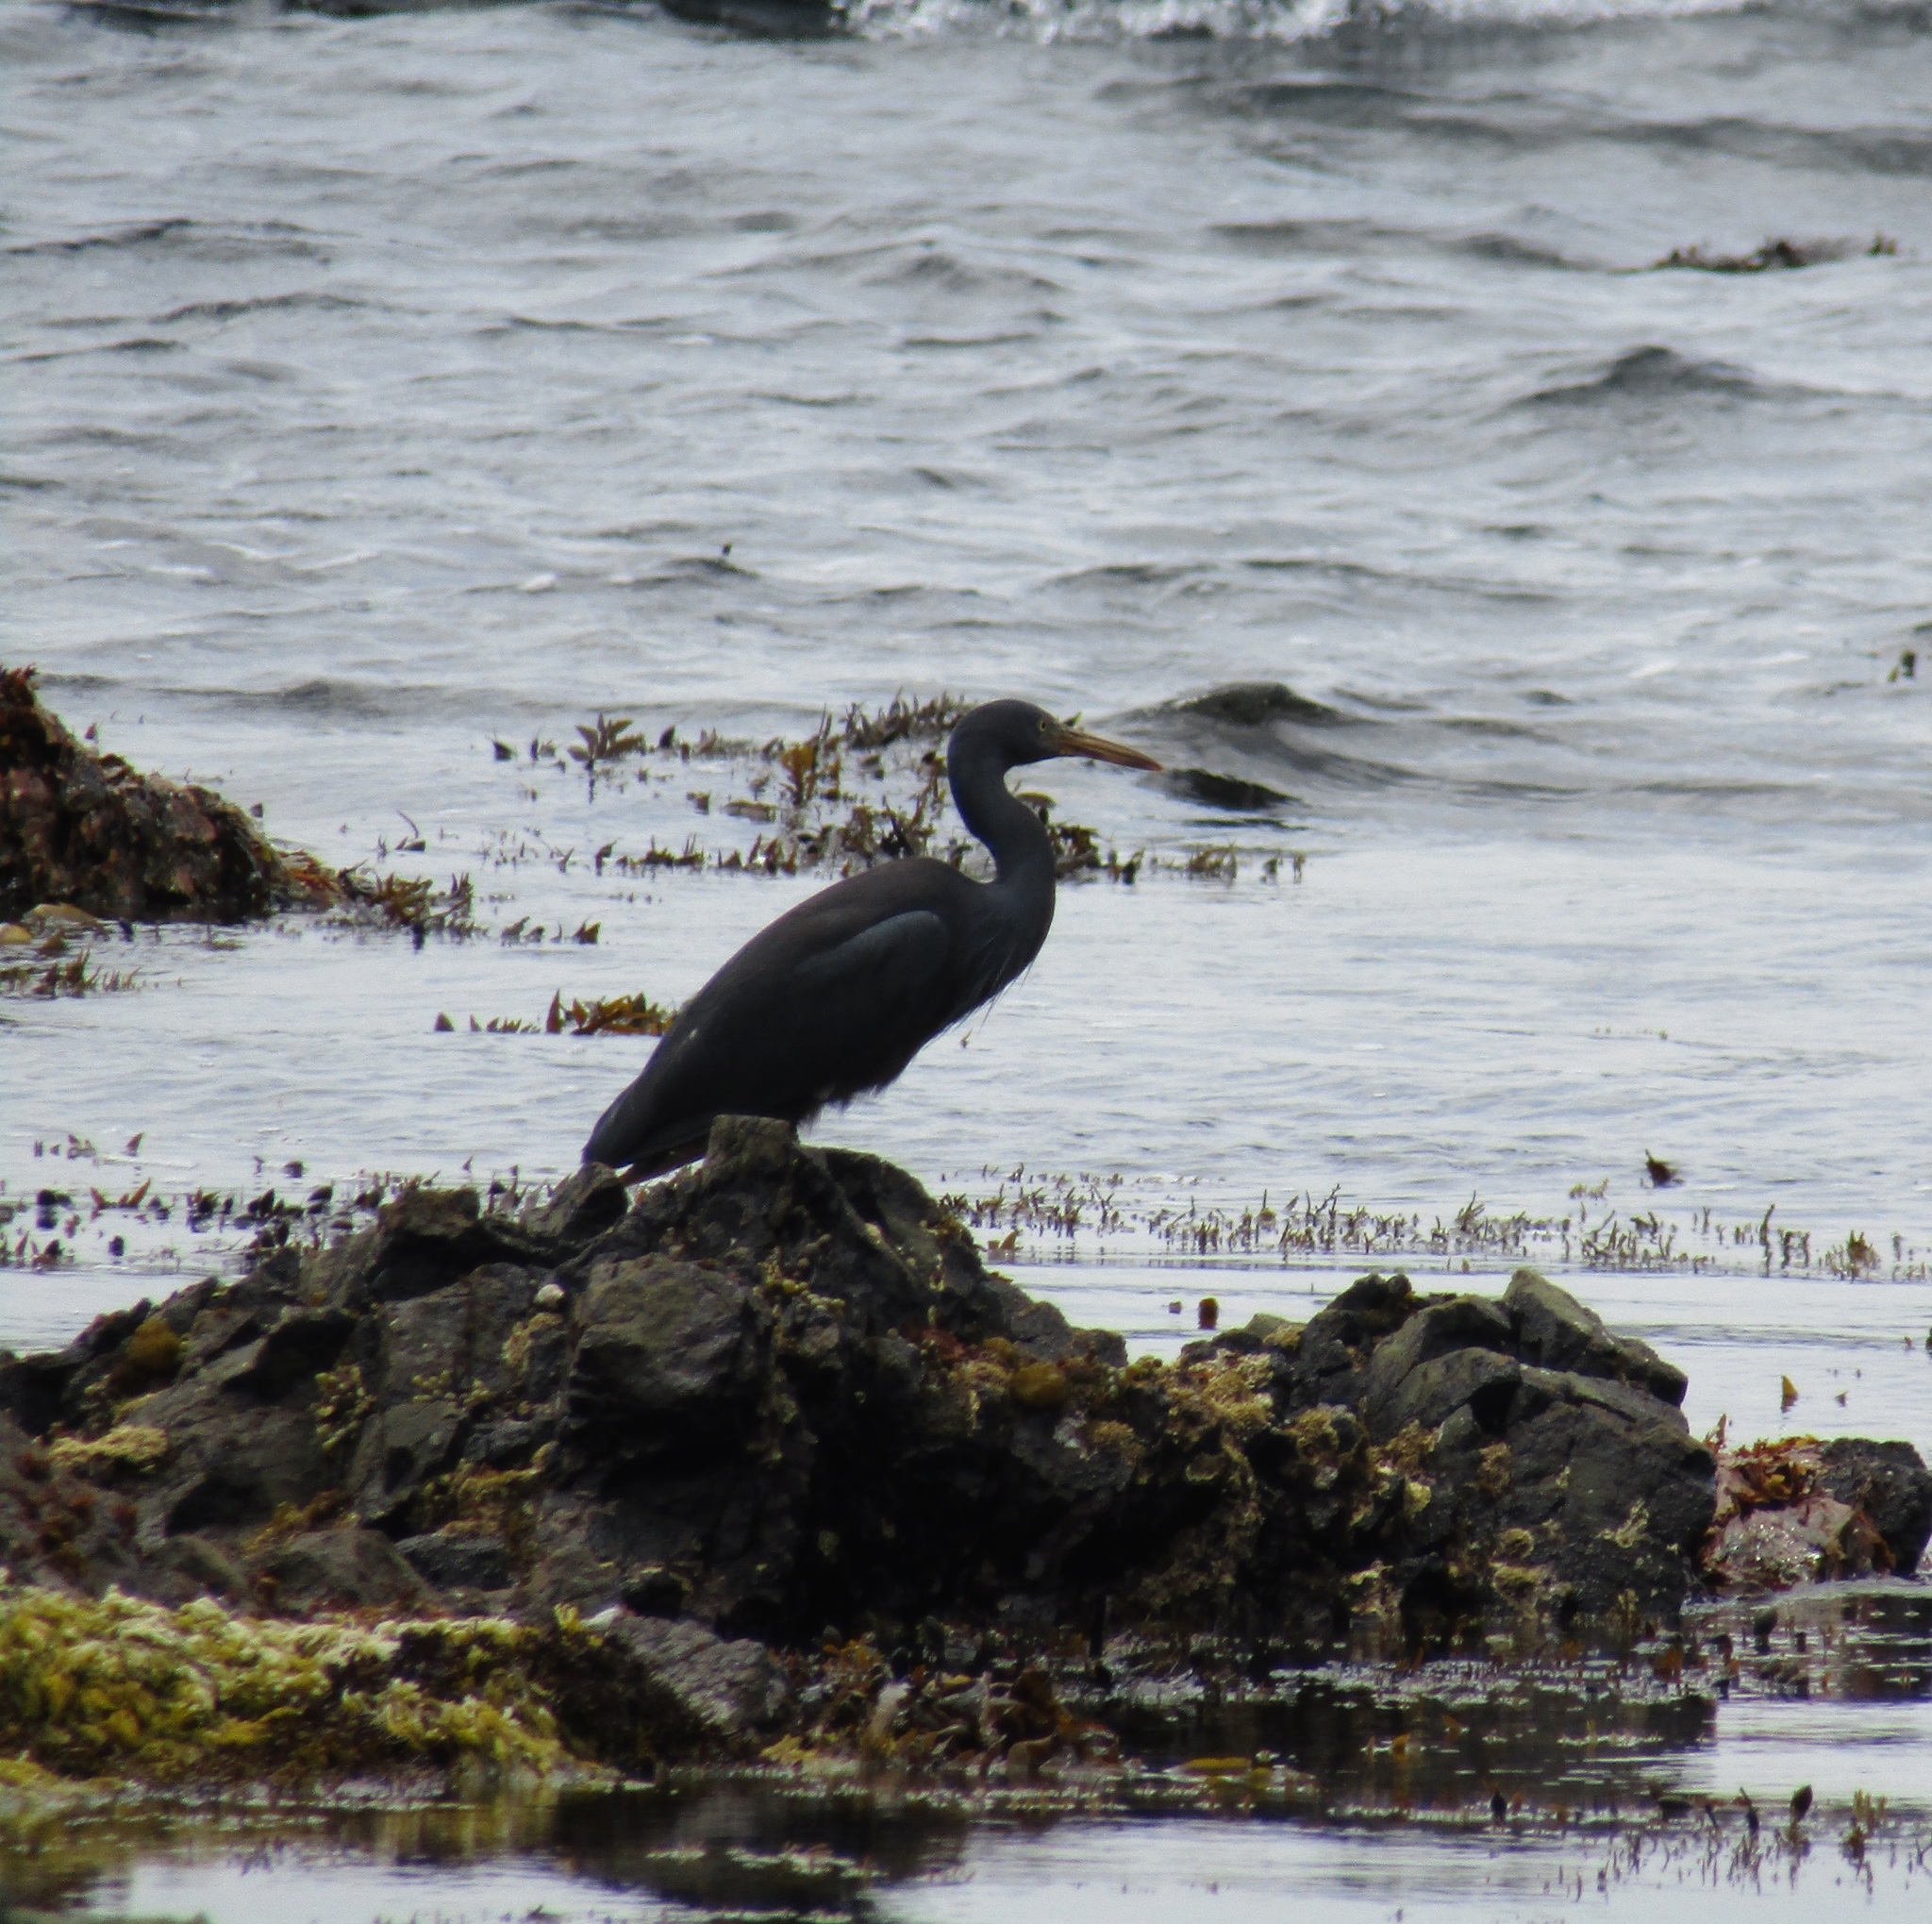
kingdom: Animalia
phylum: Chordata
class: Aves
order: Pelecaniformes
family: Ardeidae
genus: Egretta
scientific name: Egretta sacra
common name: Pacific reef heron
